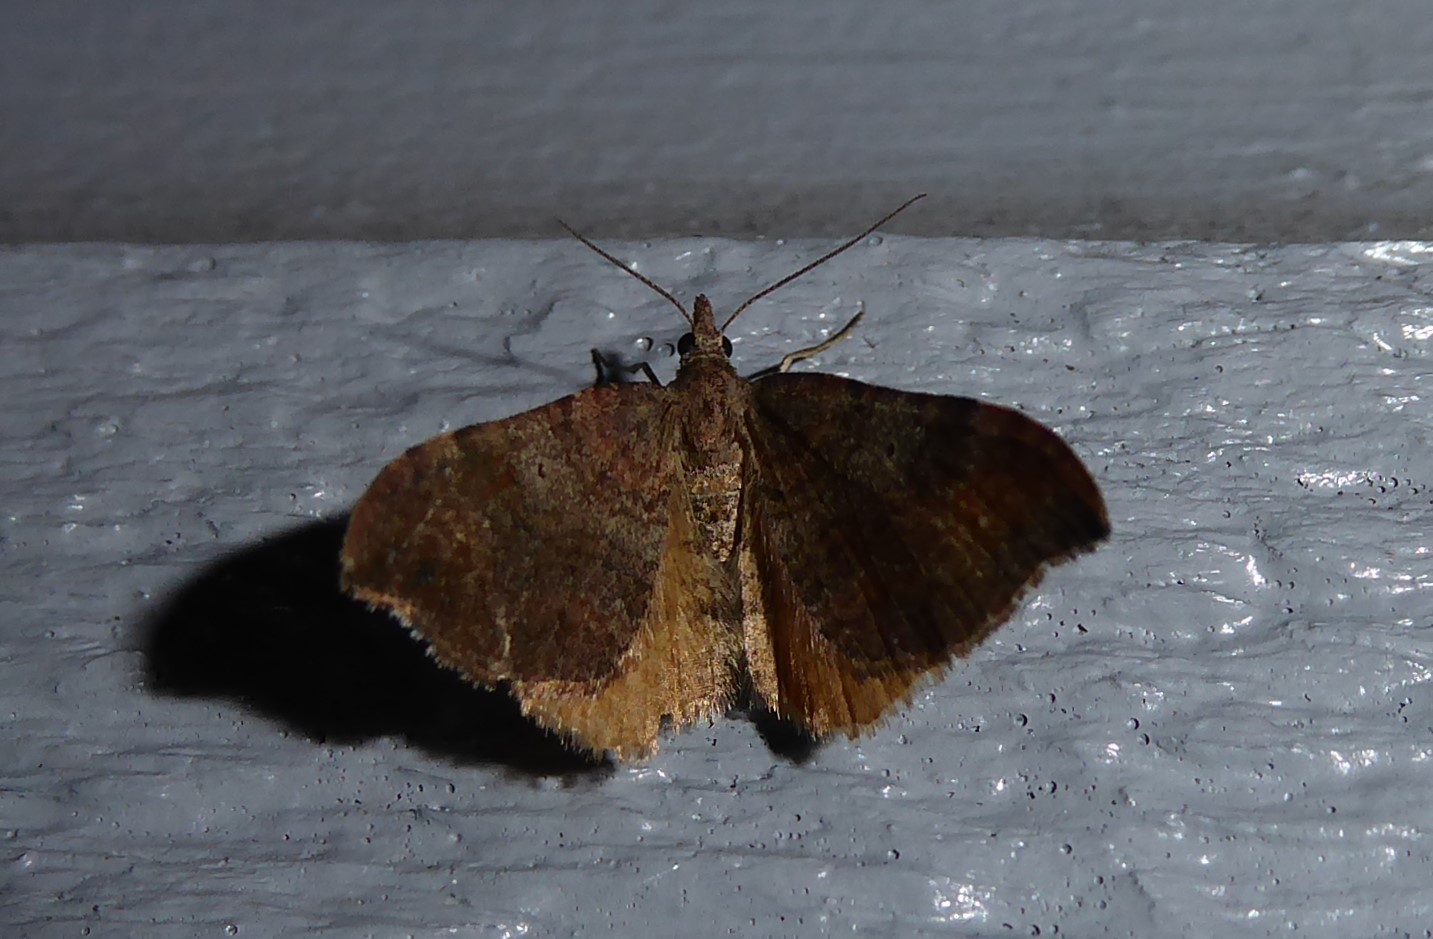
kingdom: Animalia
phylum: Arthropoda
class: Insecta
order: Lepidoptera
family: Geometridae
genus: Homodotis
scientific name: Homodotis megaspilata
